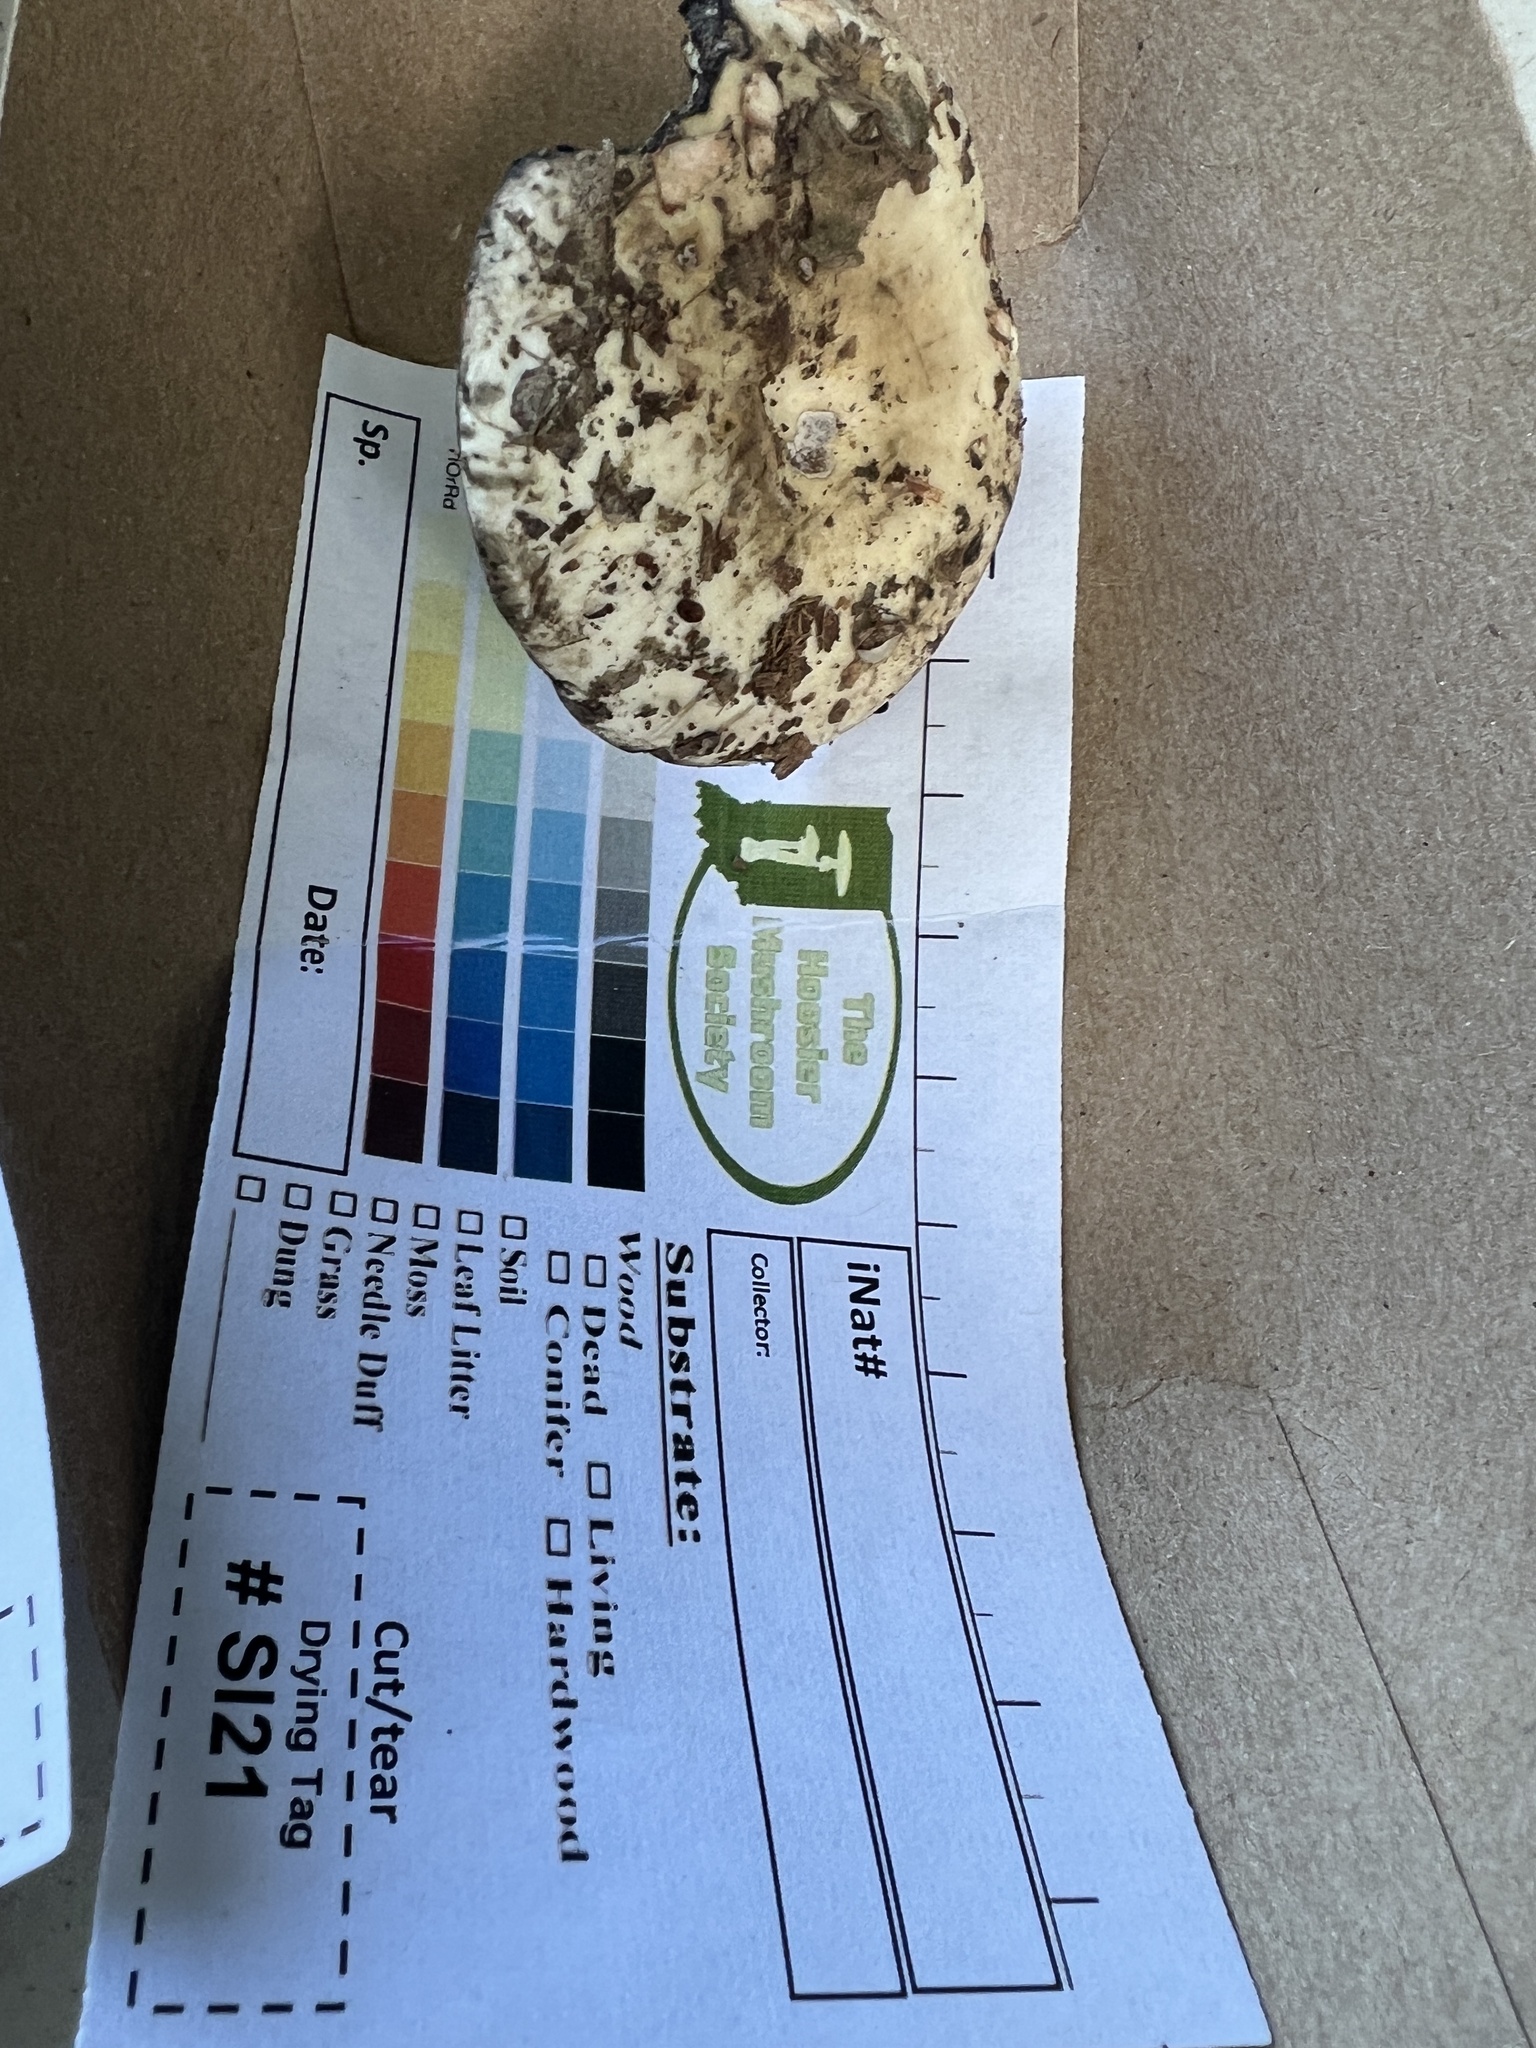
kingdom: Fungi
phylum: Basidiomycota
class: Agaricomycetes
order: Russulales
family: Russulaceae
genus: Russula
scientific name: Russula densissima
